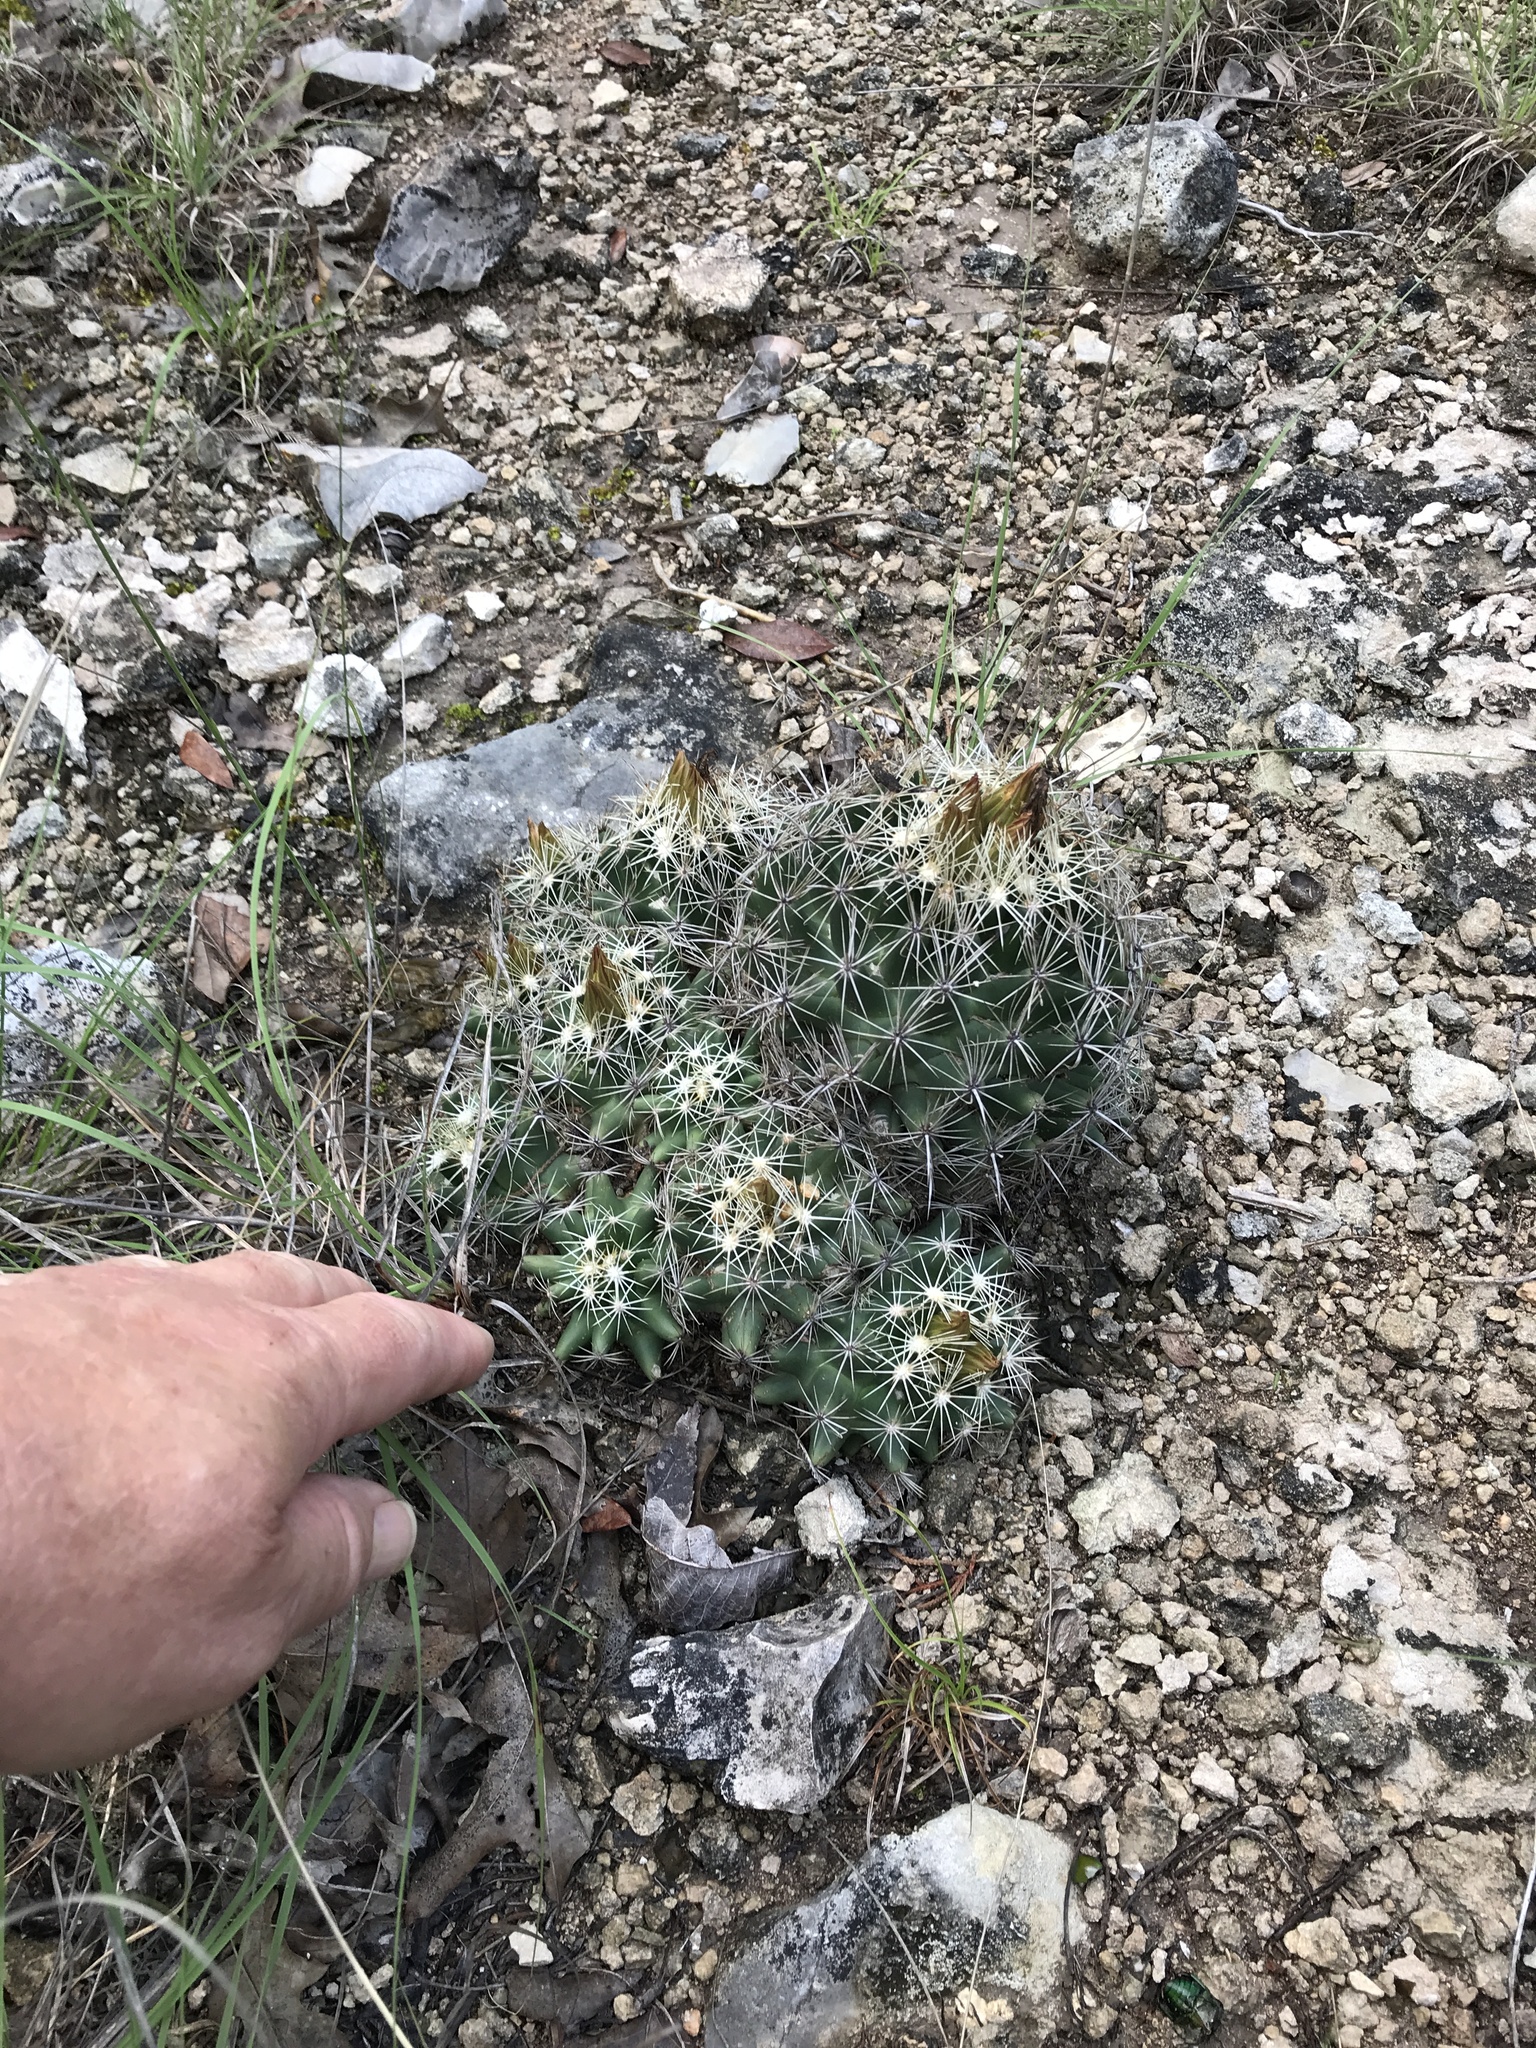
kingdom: Plantae
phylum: Tracheophyta
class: Magnoliopsida
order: Caryophyllales
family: Cactaceae
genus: Coryphantha
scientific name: Coryphantha sulcata
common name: Finger cactus
